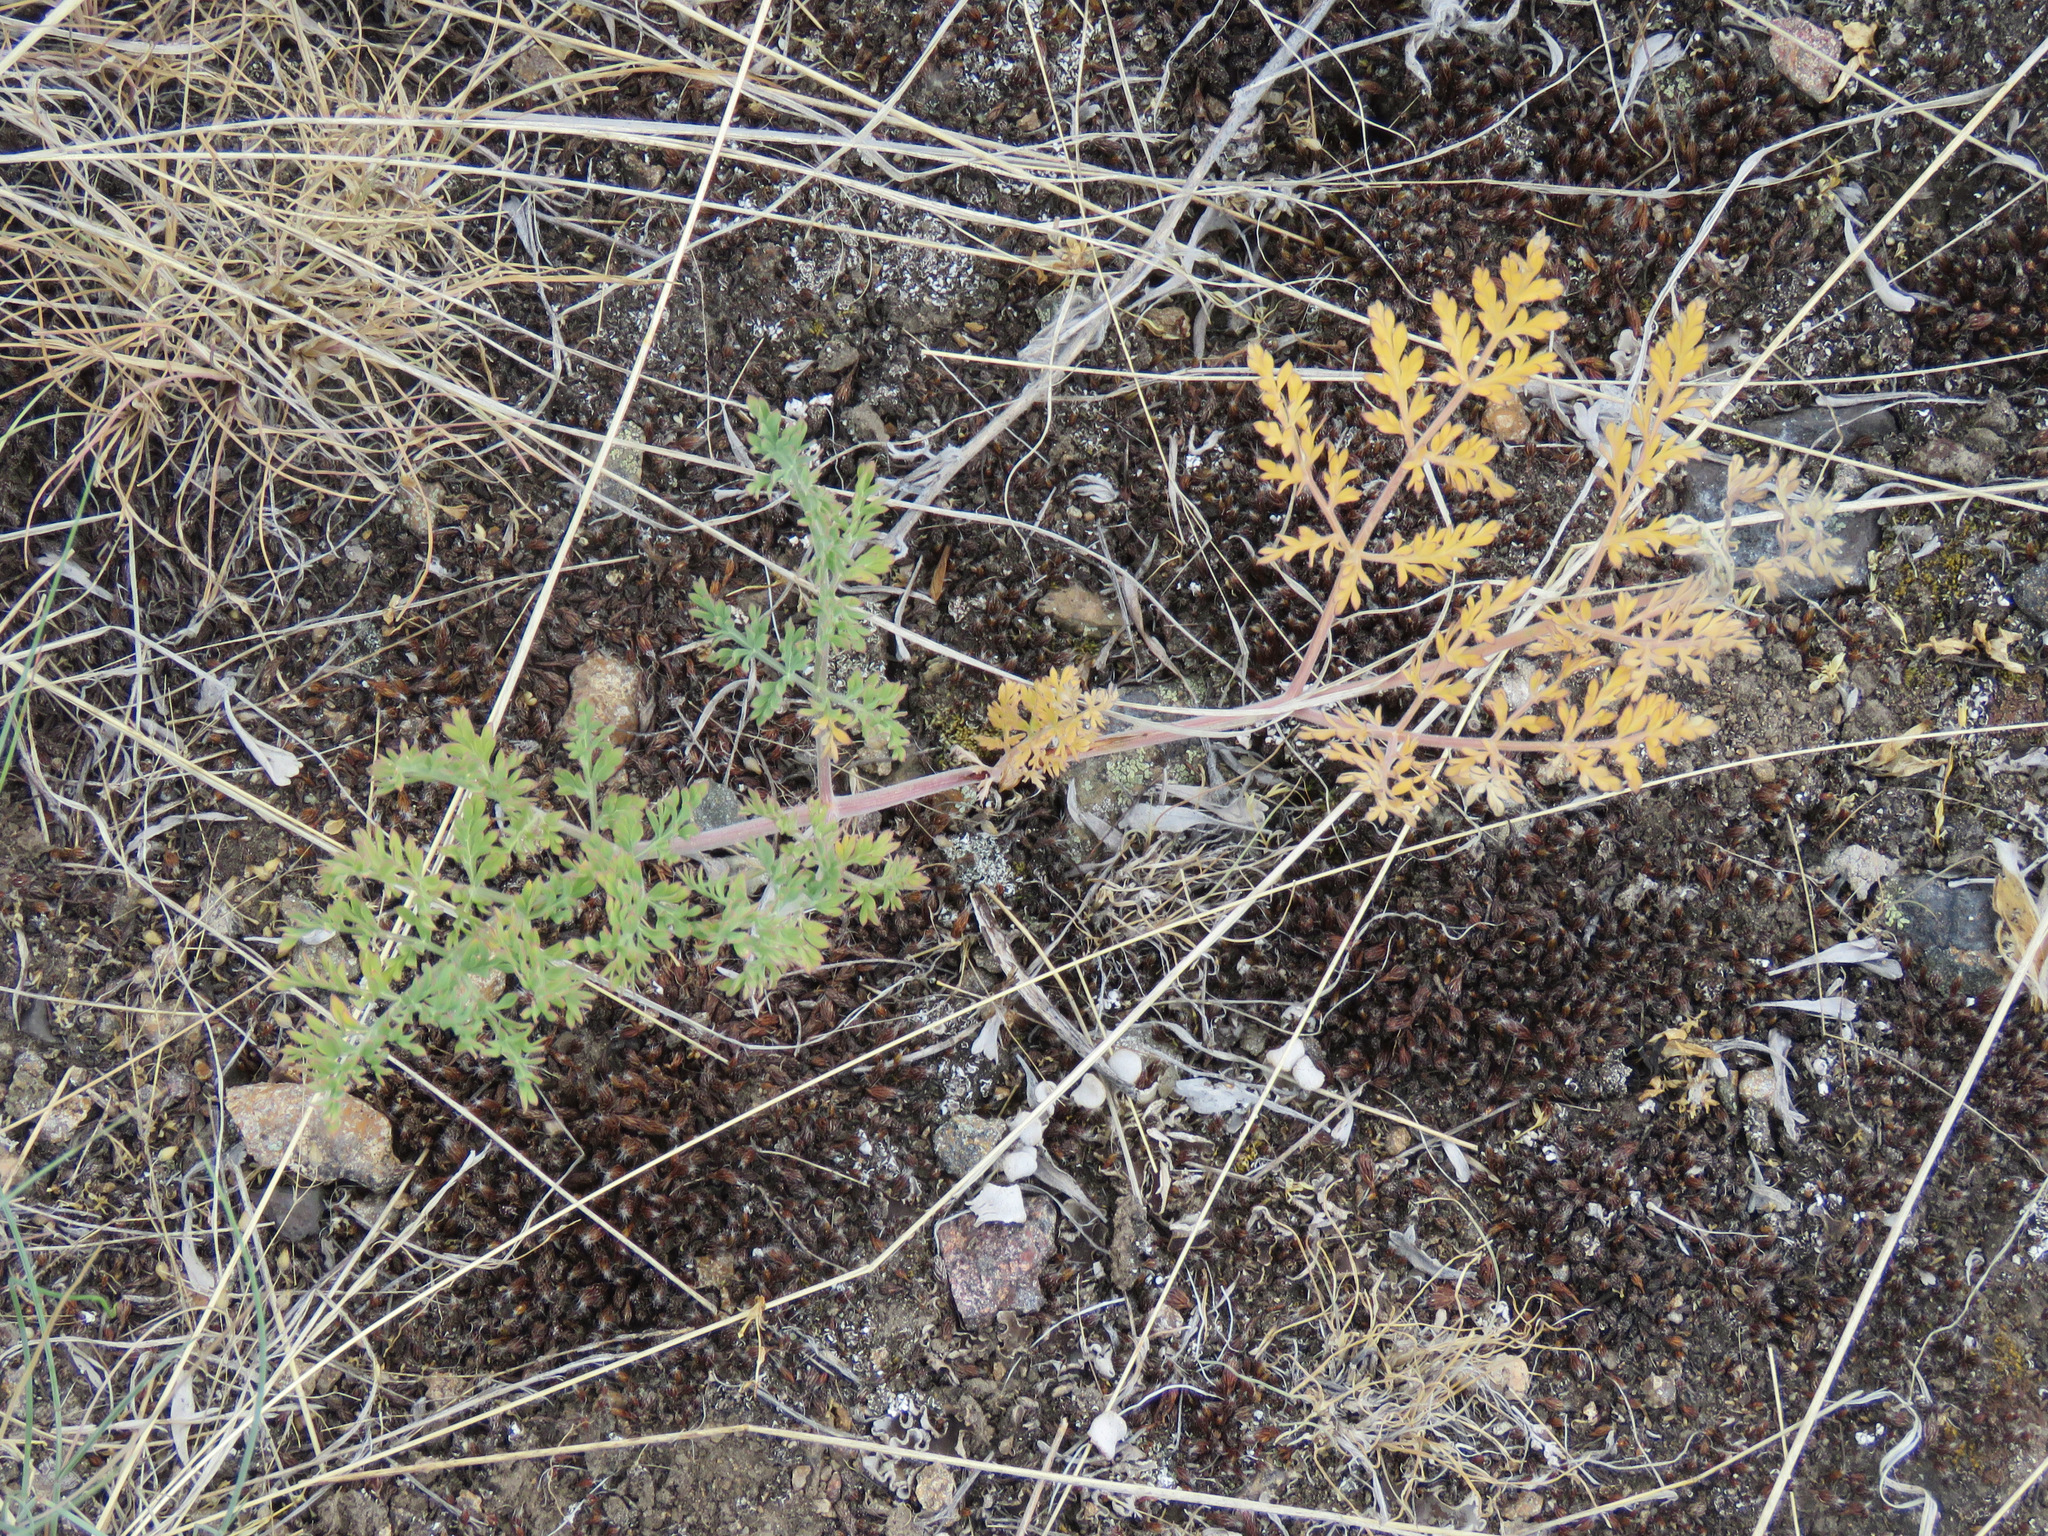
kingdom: Plantae
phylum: Tracheophyta
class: Magnoliopsida
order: Apiales
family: Apiaceae
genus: Lomatium
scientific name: Lomatium macrocarpum
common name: Big-seed biscuitroot
